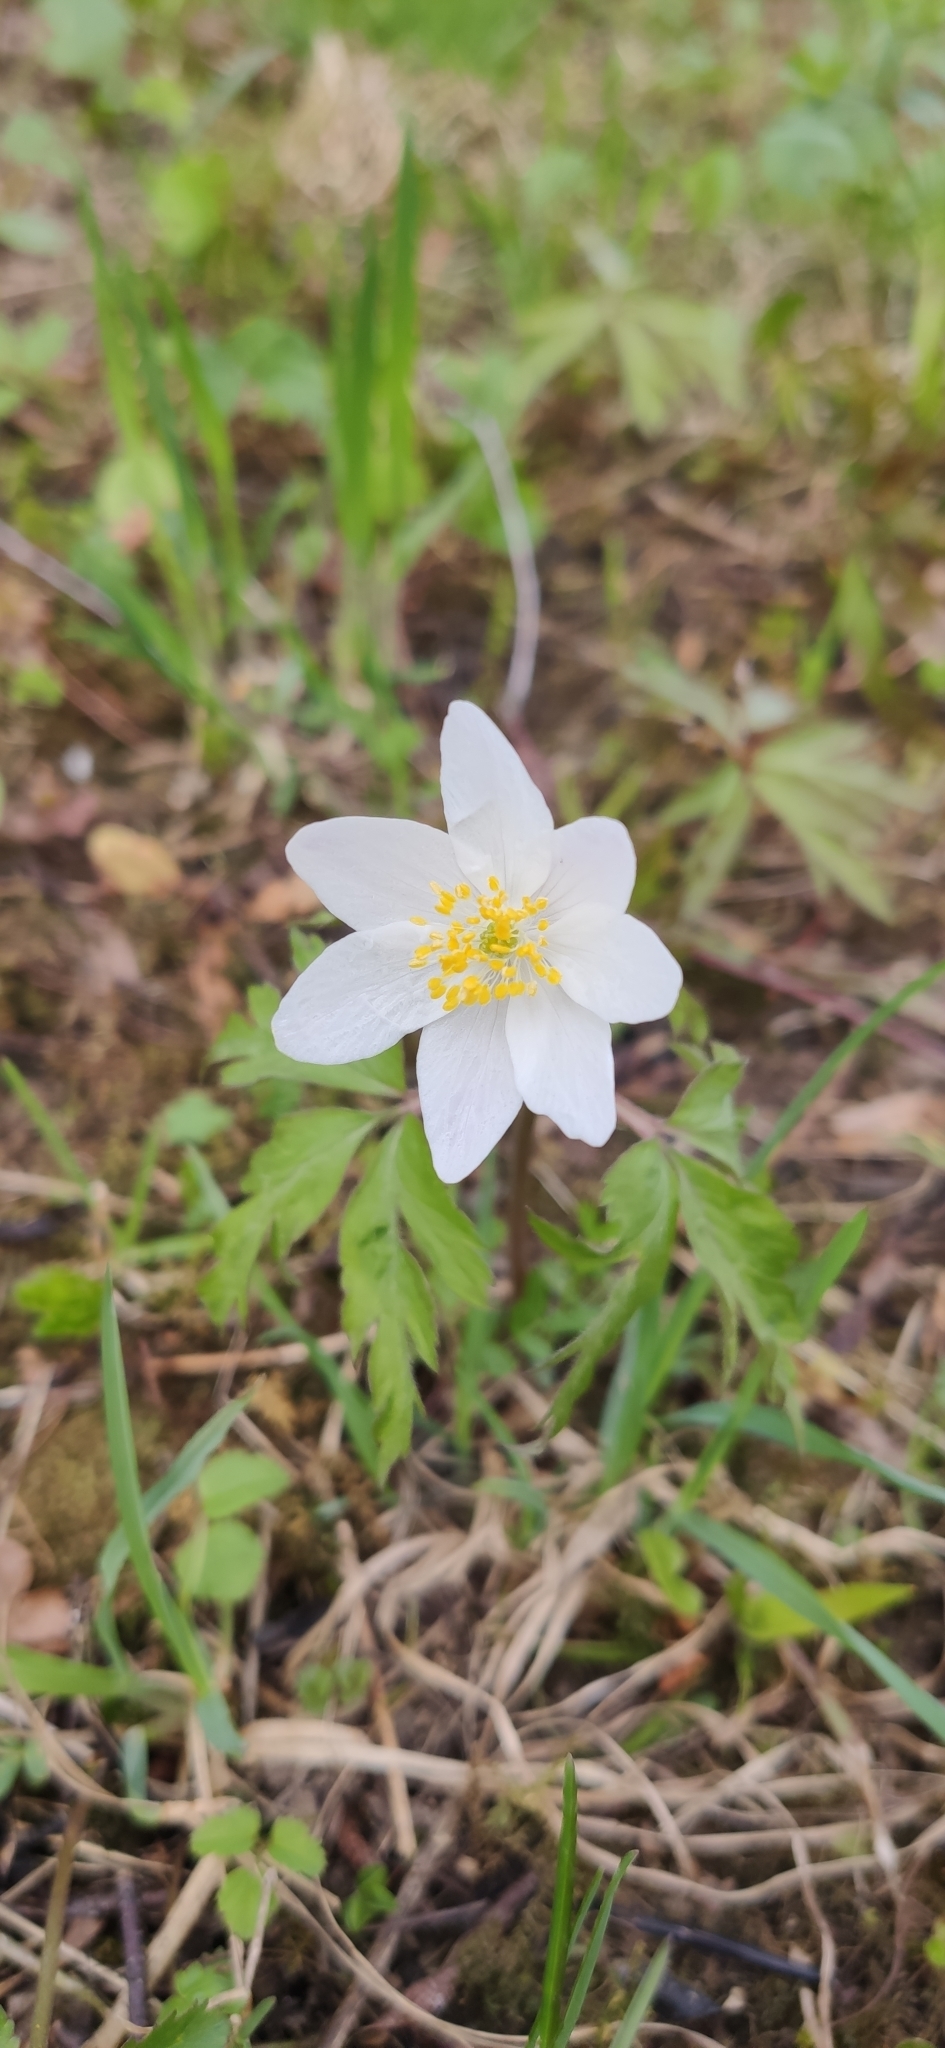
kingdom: Plantae
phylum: Tracheophyta
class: Magnoliopsida
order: Ranunculales
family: Ranunculaceae
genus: Anemone
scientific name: Anemone nemorosa
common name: Wood anemone
